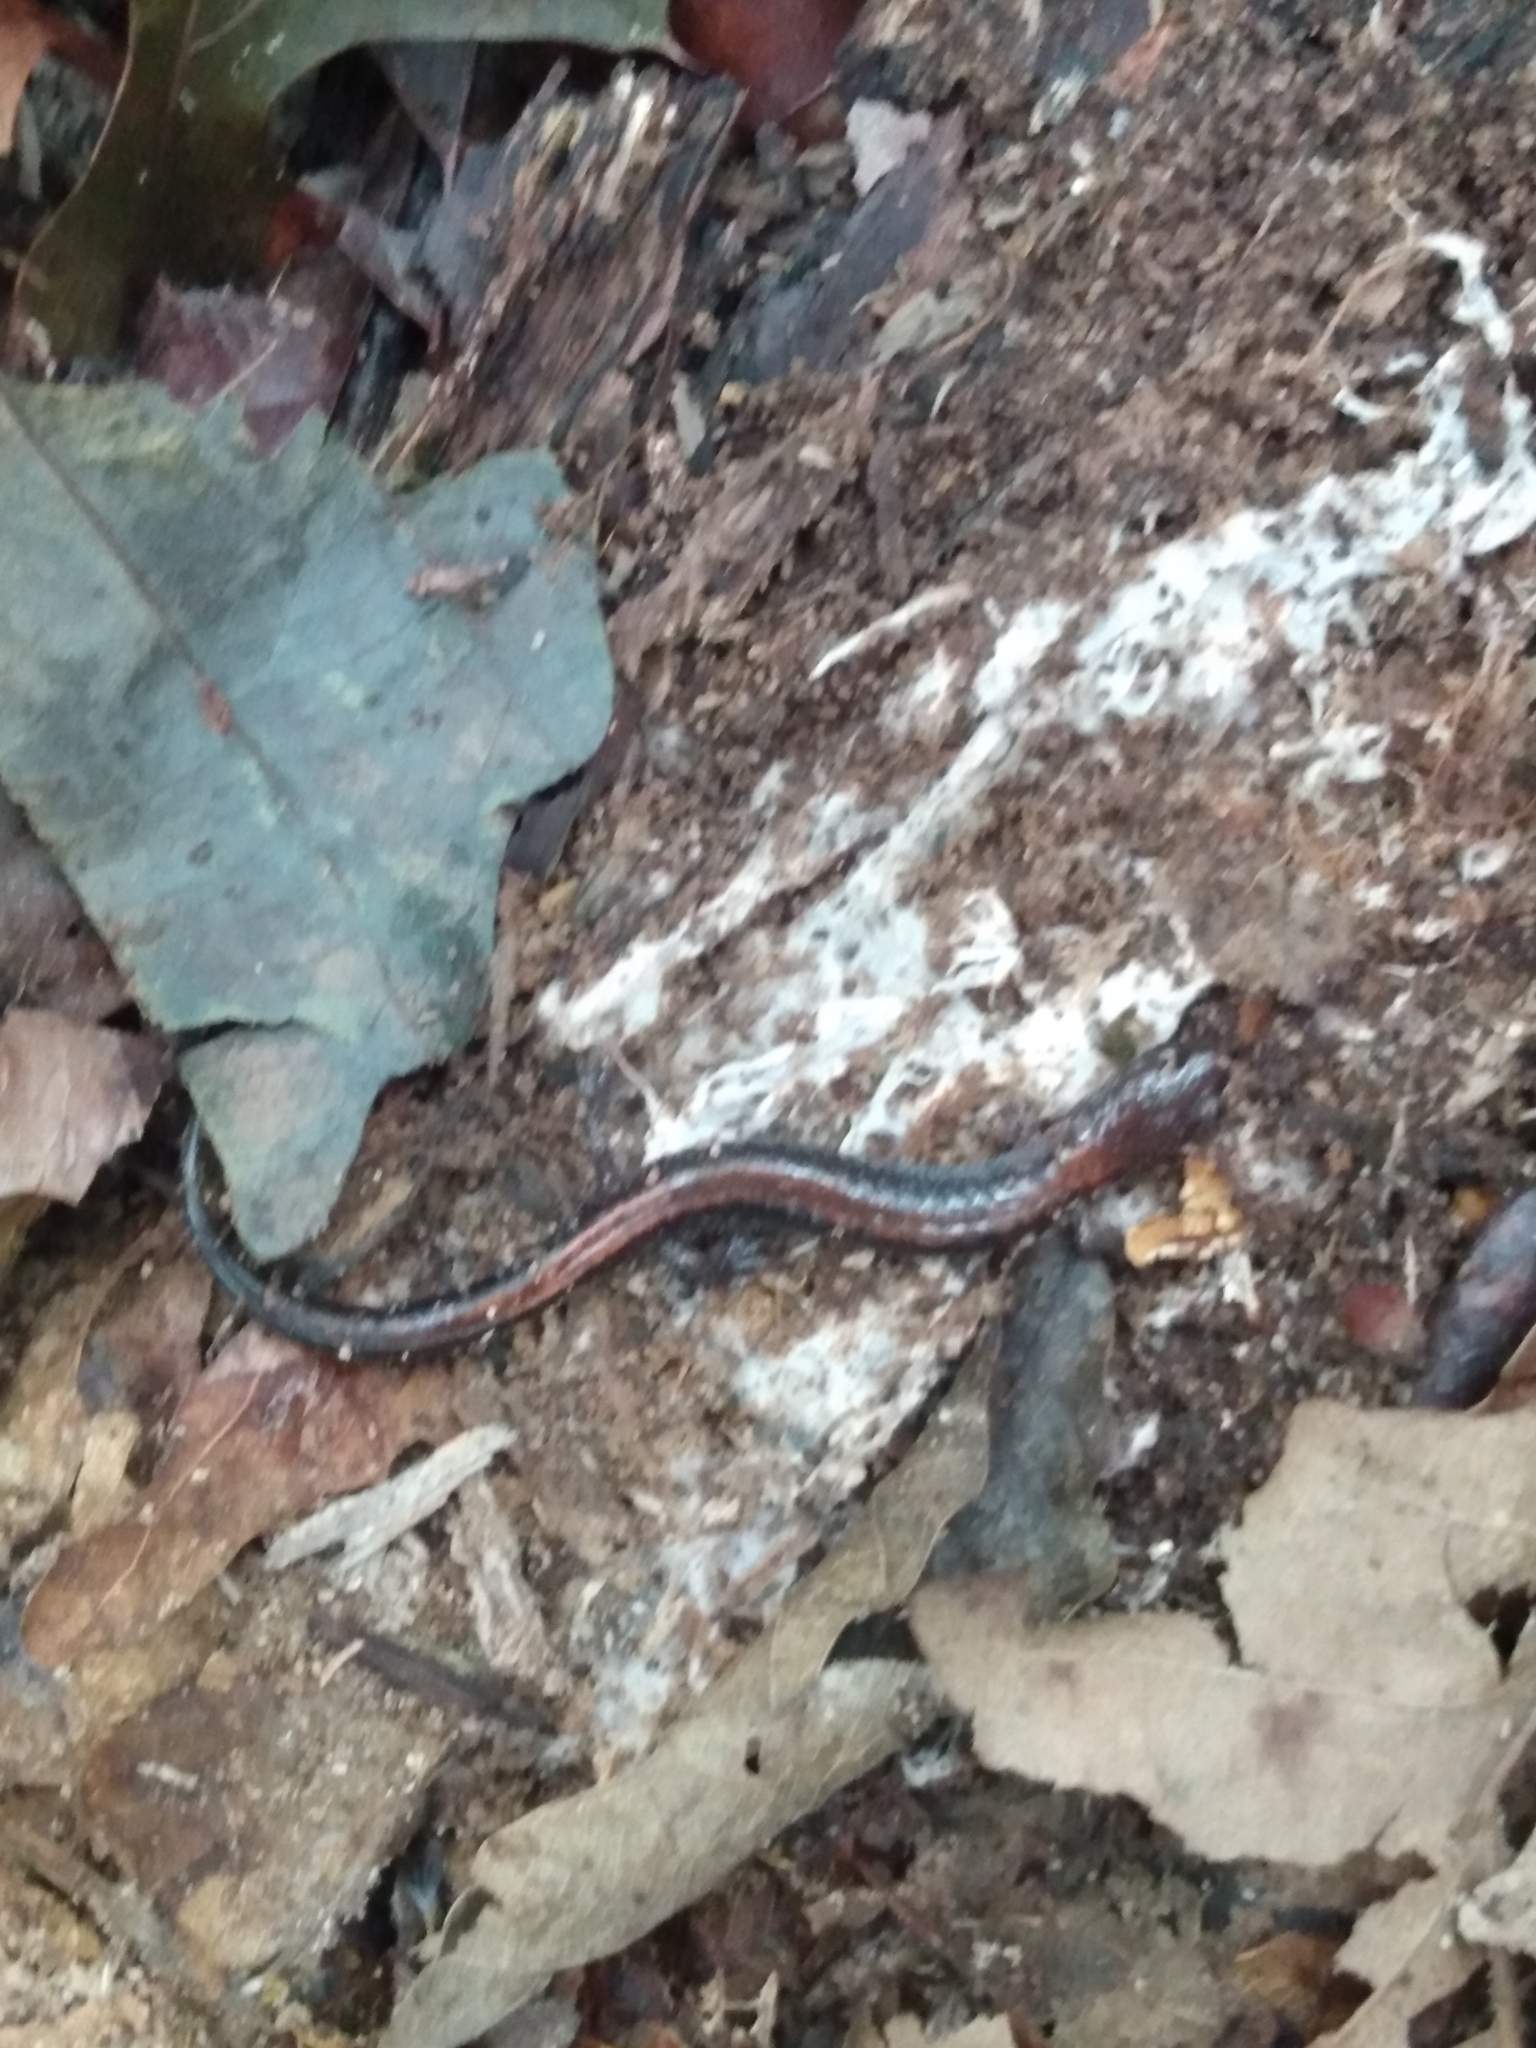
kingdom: Animalia
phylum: Chordata
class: Amphibia
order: Caudata
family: Plethodontidae
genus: Plethodon
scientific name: Plethodon cinereus
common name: Redback salamander
